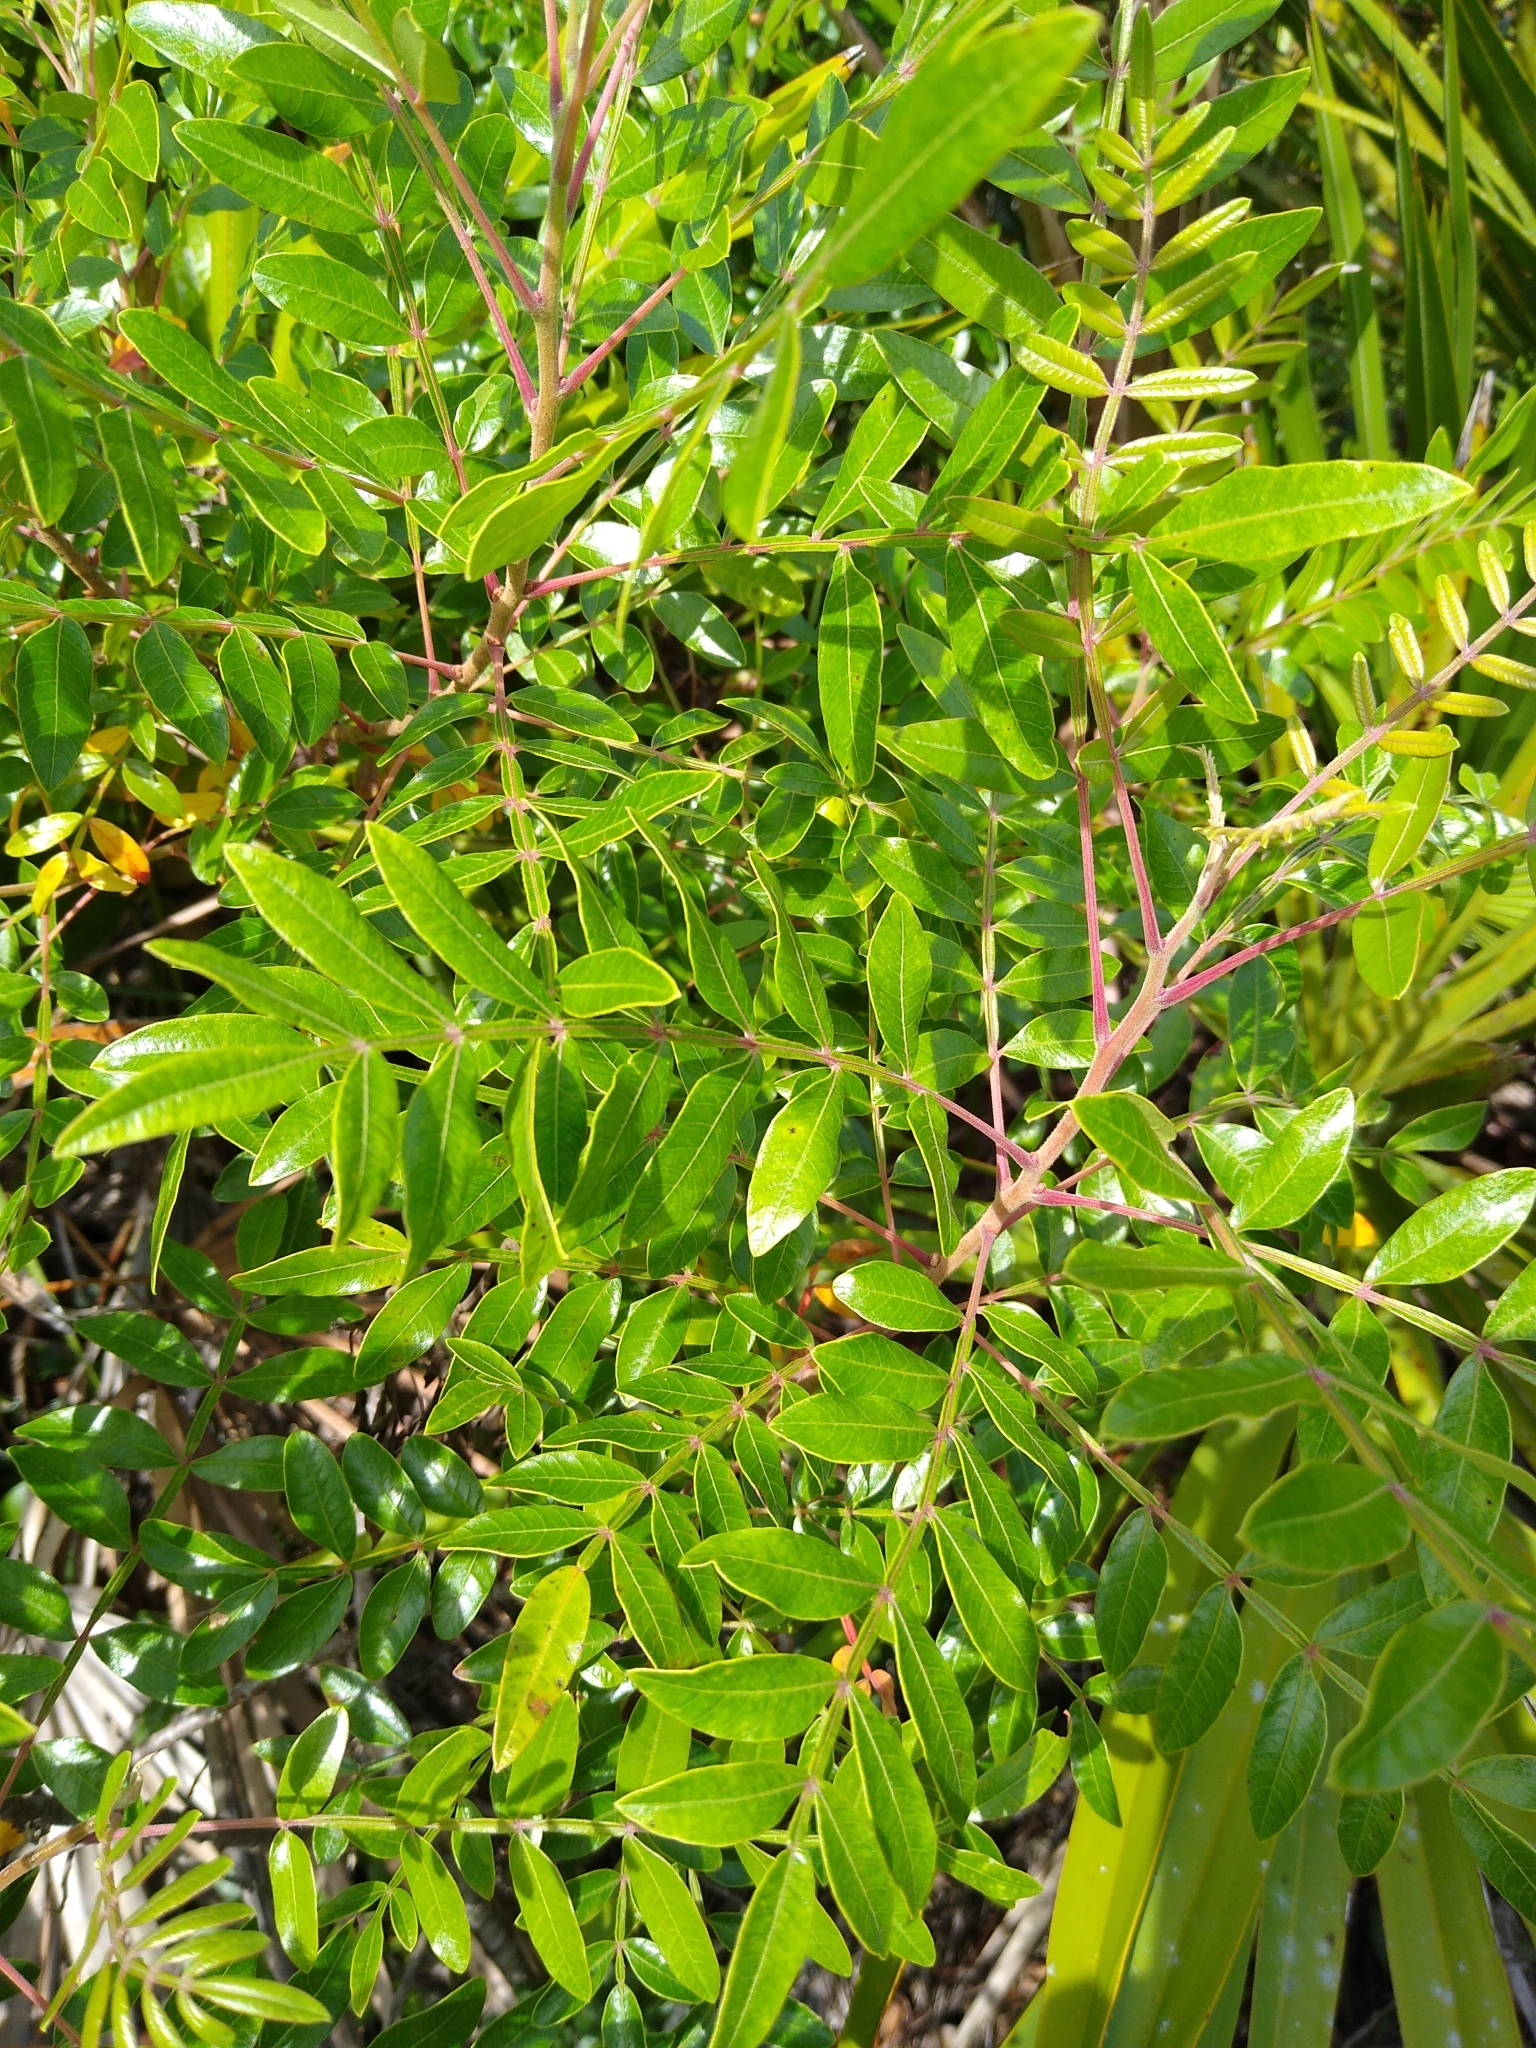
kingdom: Plantae
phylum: Tracheophyta
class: Magnoliopsida
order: Sapindales
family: Anacardiaceae
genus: Rhus
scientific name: Rhus copallina
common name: Shining sumac
